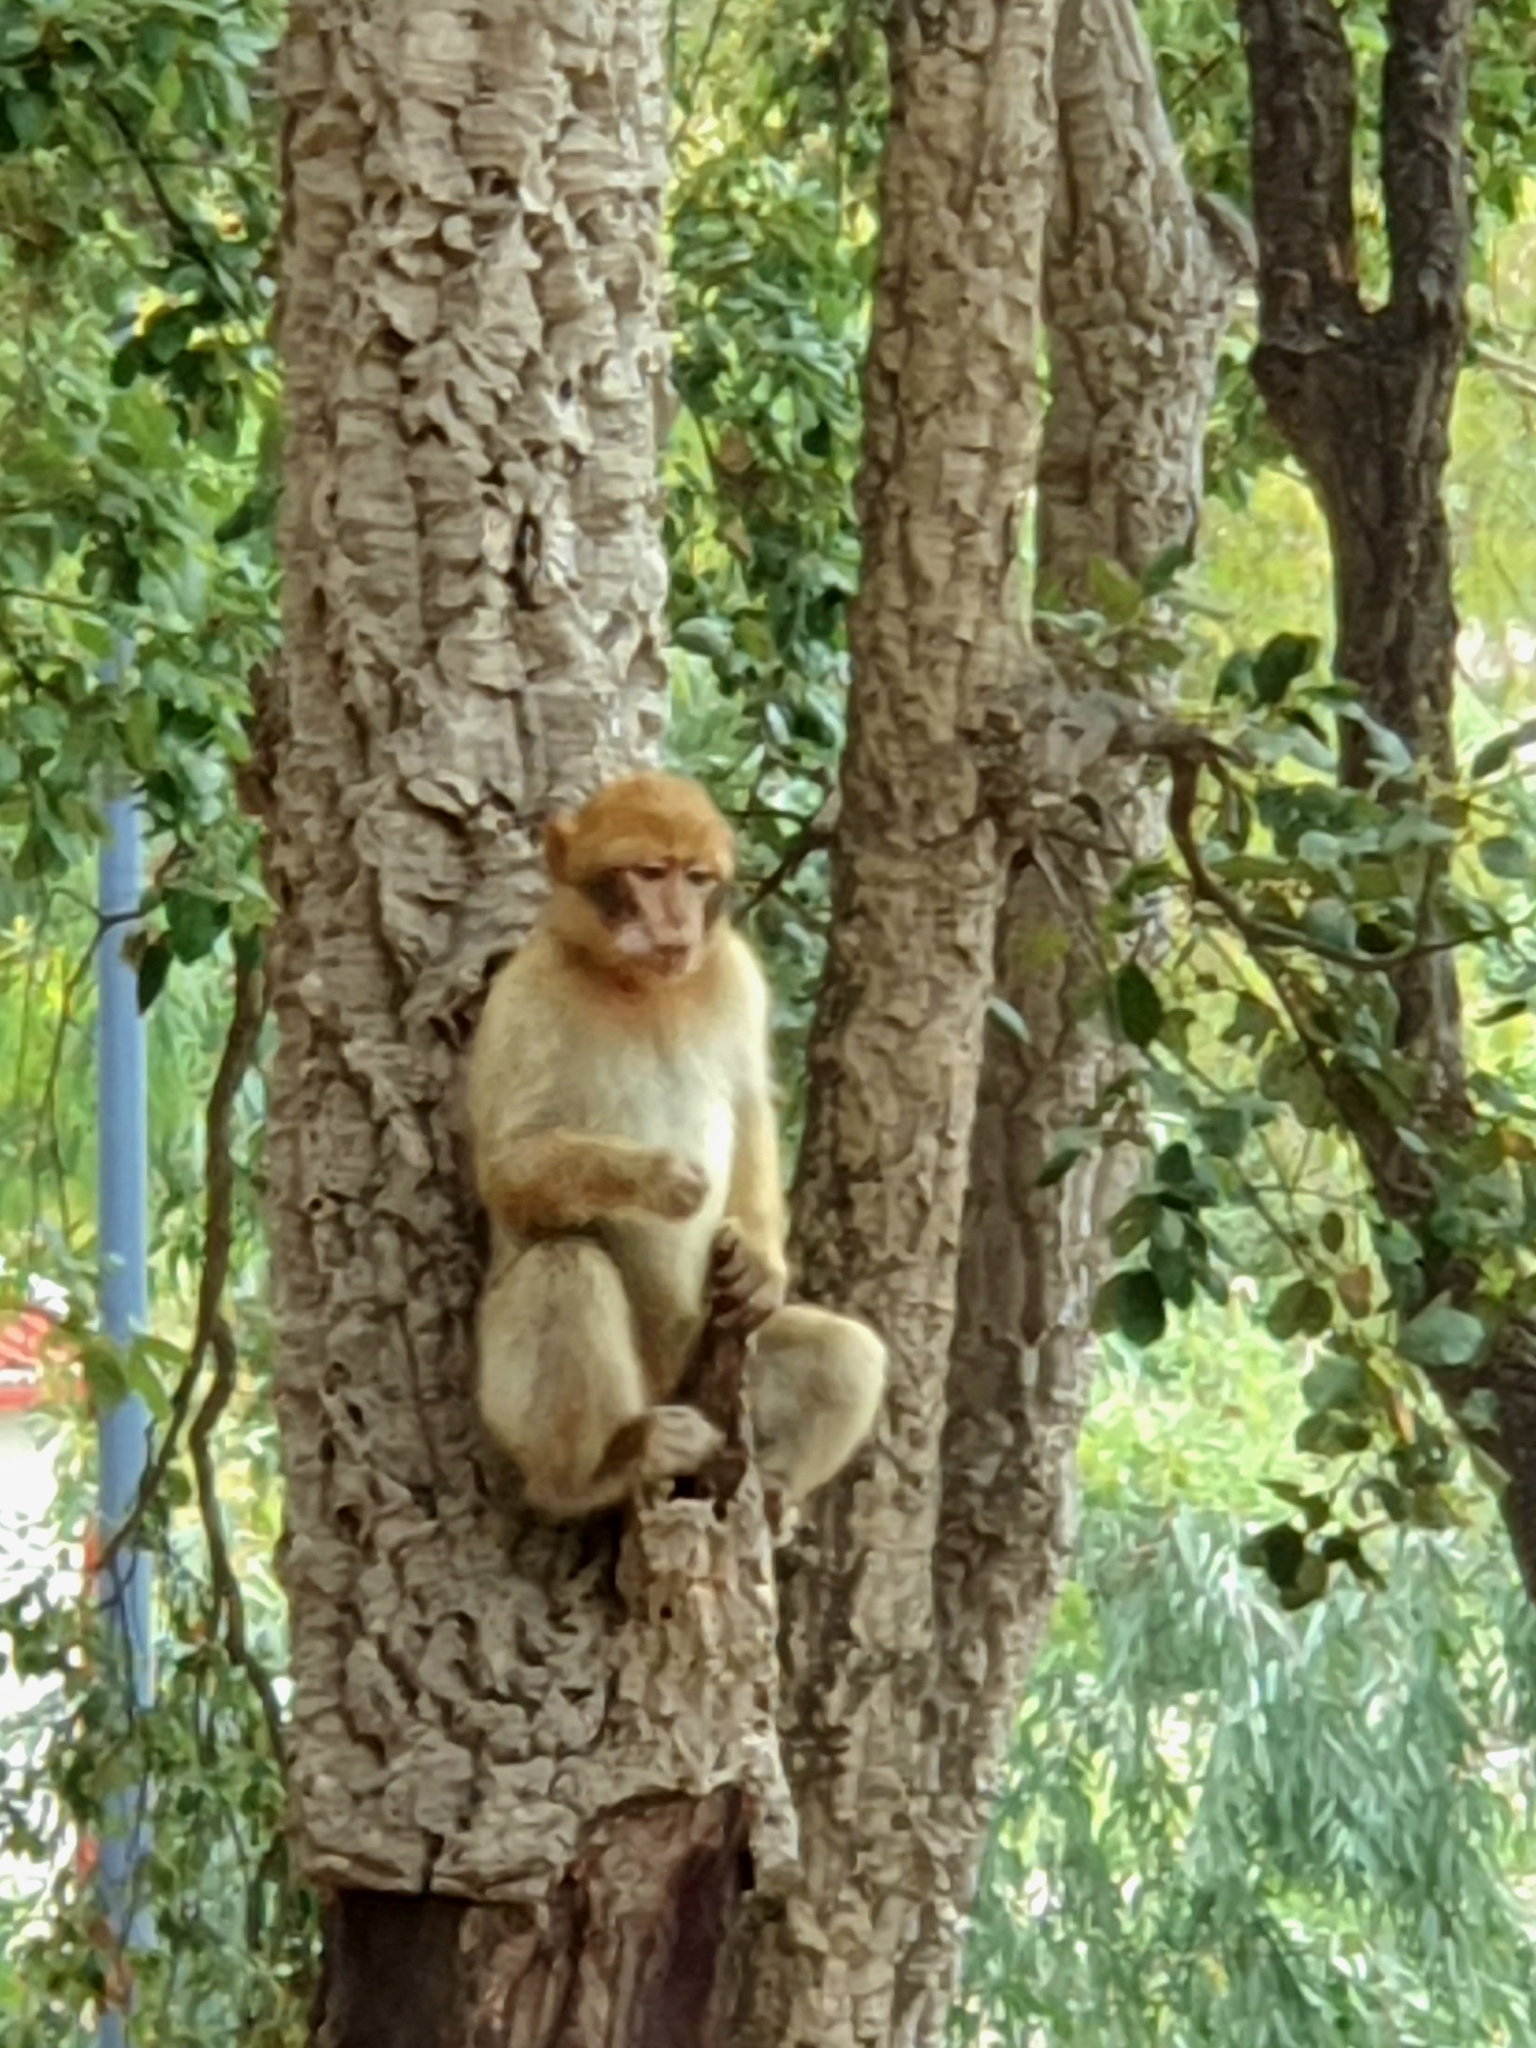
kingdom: Animalia
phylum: Chordata
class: Mammalia
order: Primates
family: Cercopithecidae
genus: Macaca
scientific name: Macaca sylvanus
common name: Barbary macaque
